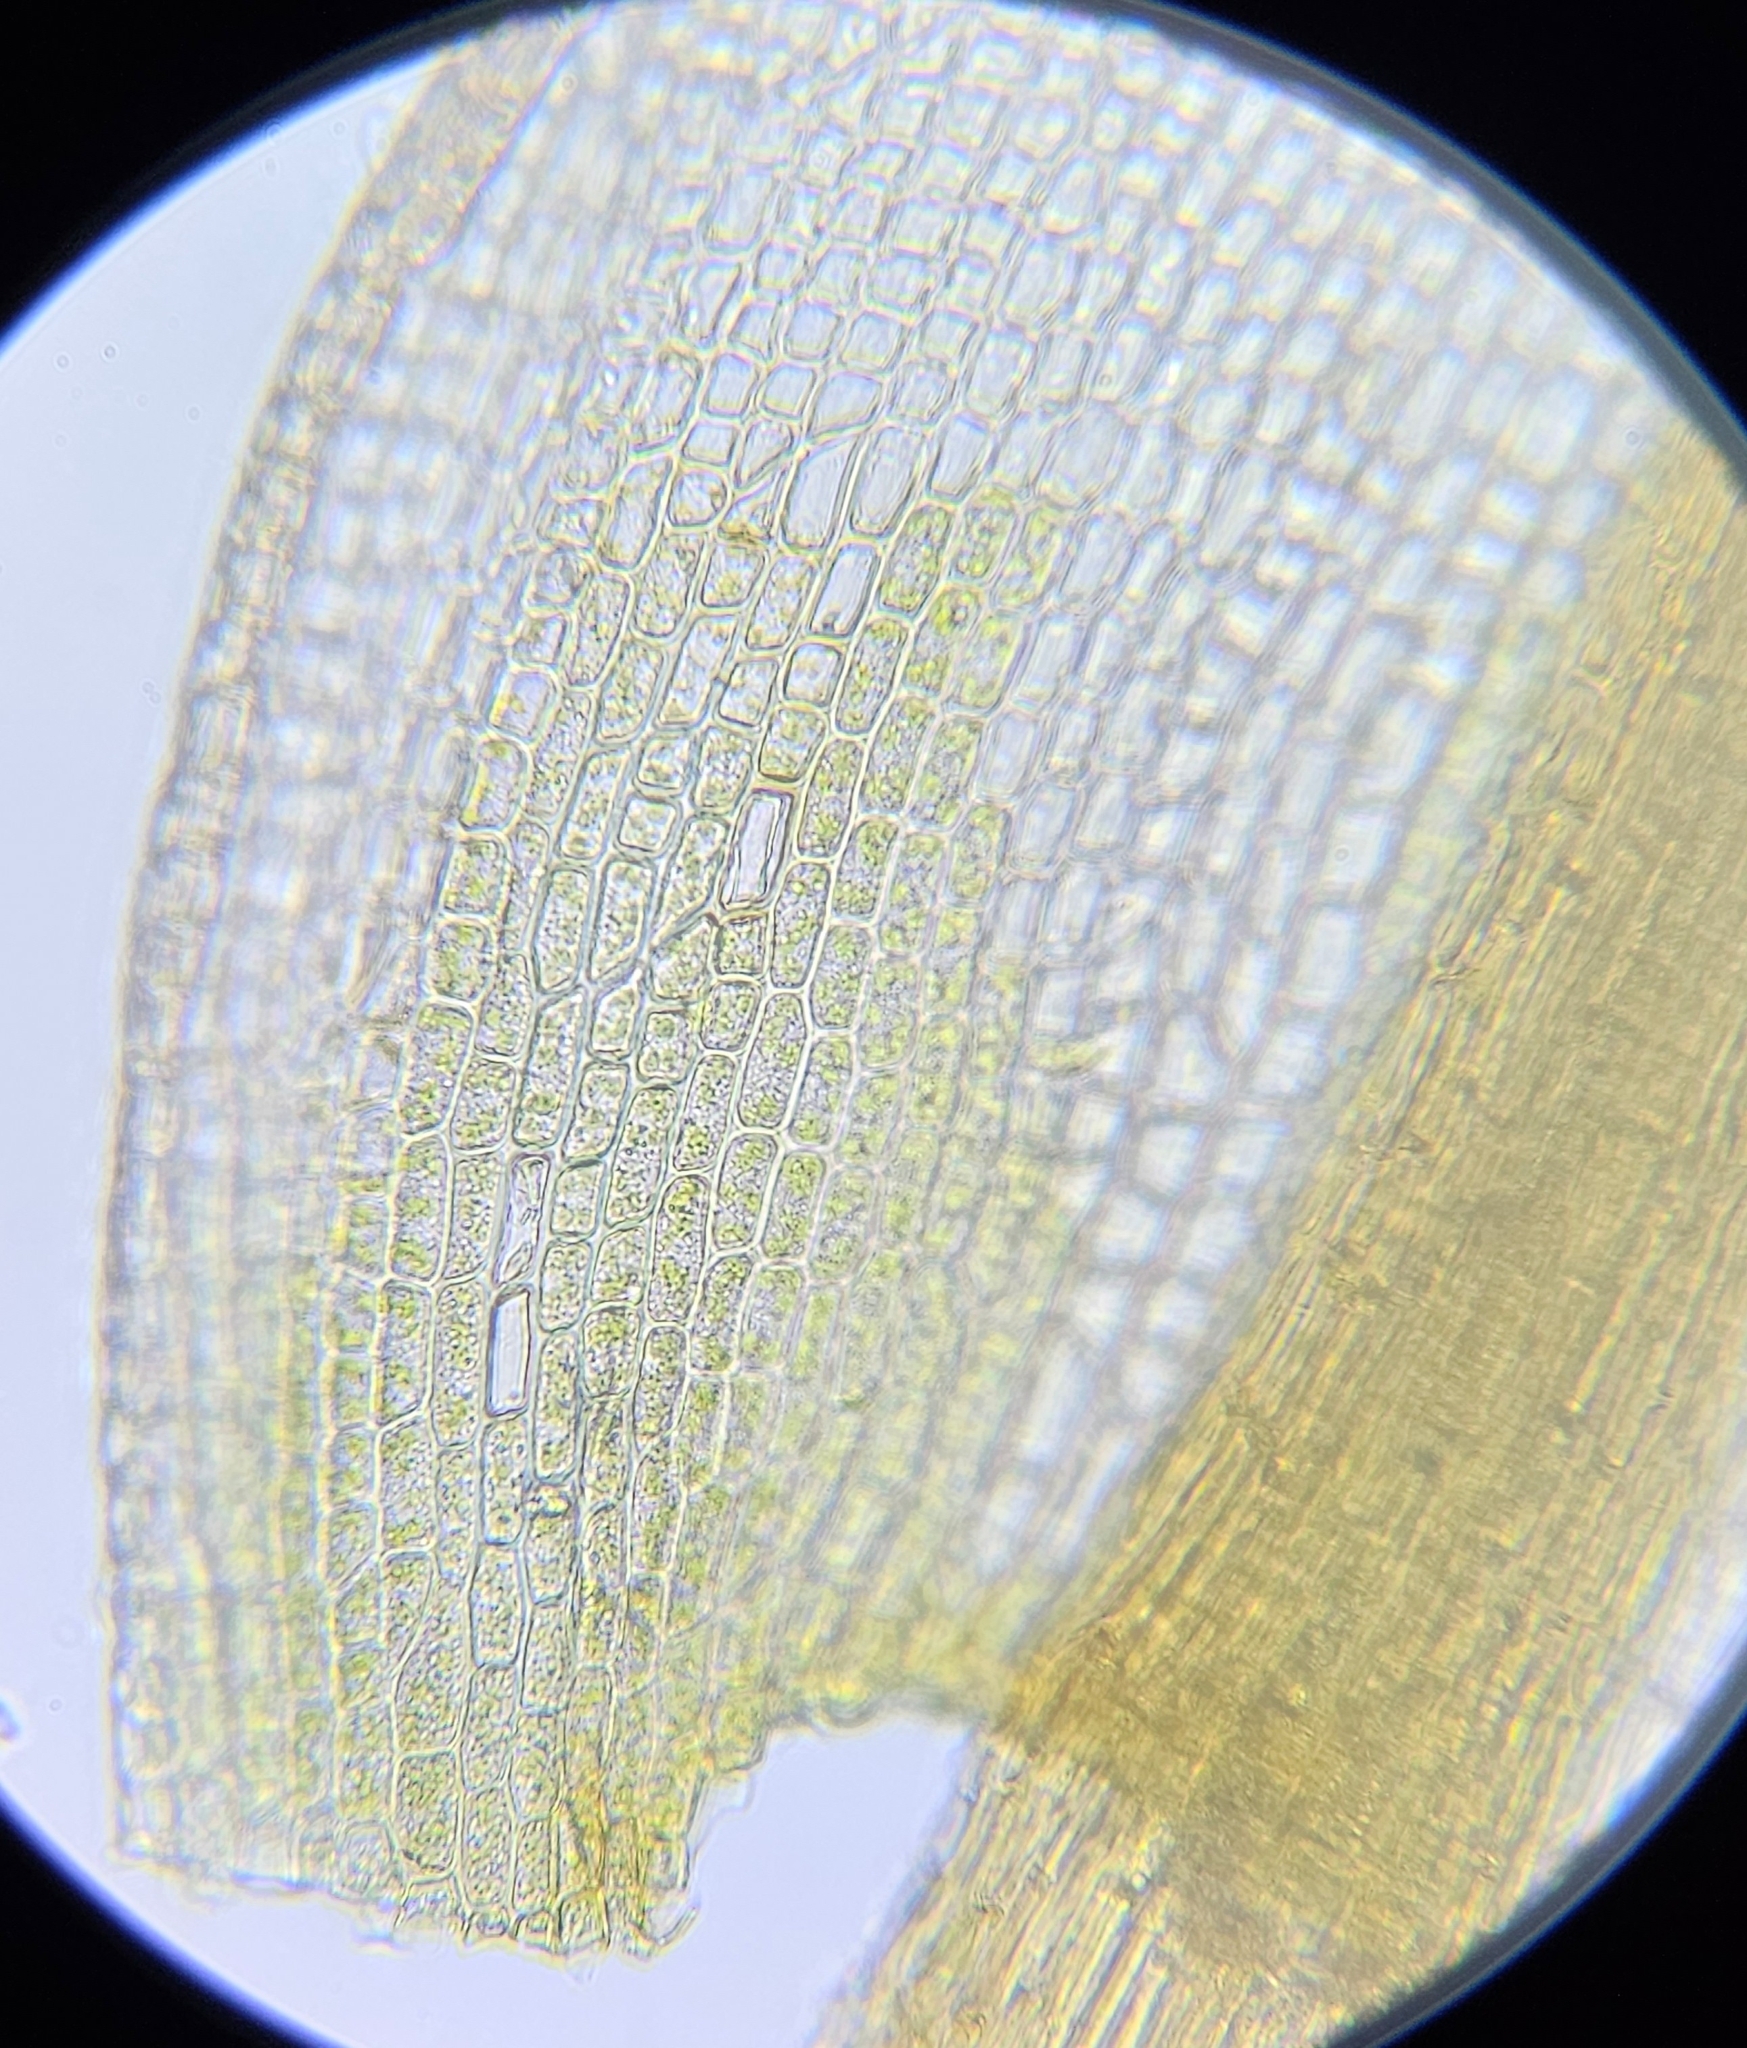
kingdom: Plantae
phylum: Bryophyta
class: Bryopsida
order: Dicranales
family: Ditrichaceae
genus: Ceratodon
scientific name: Ceratodon purpureus
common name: Redshank
